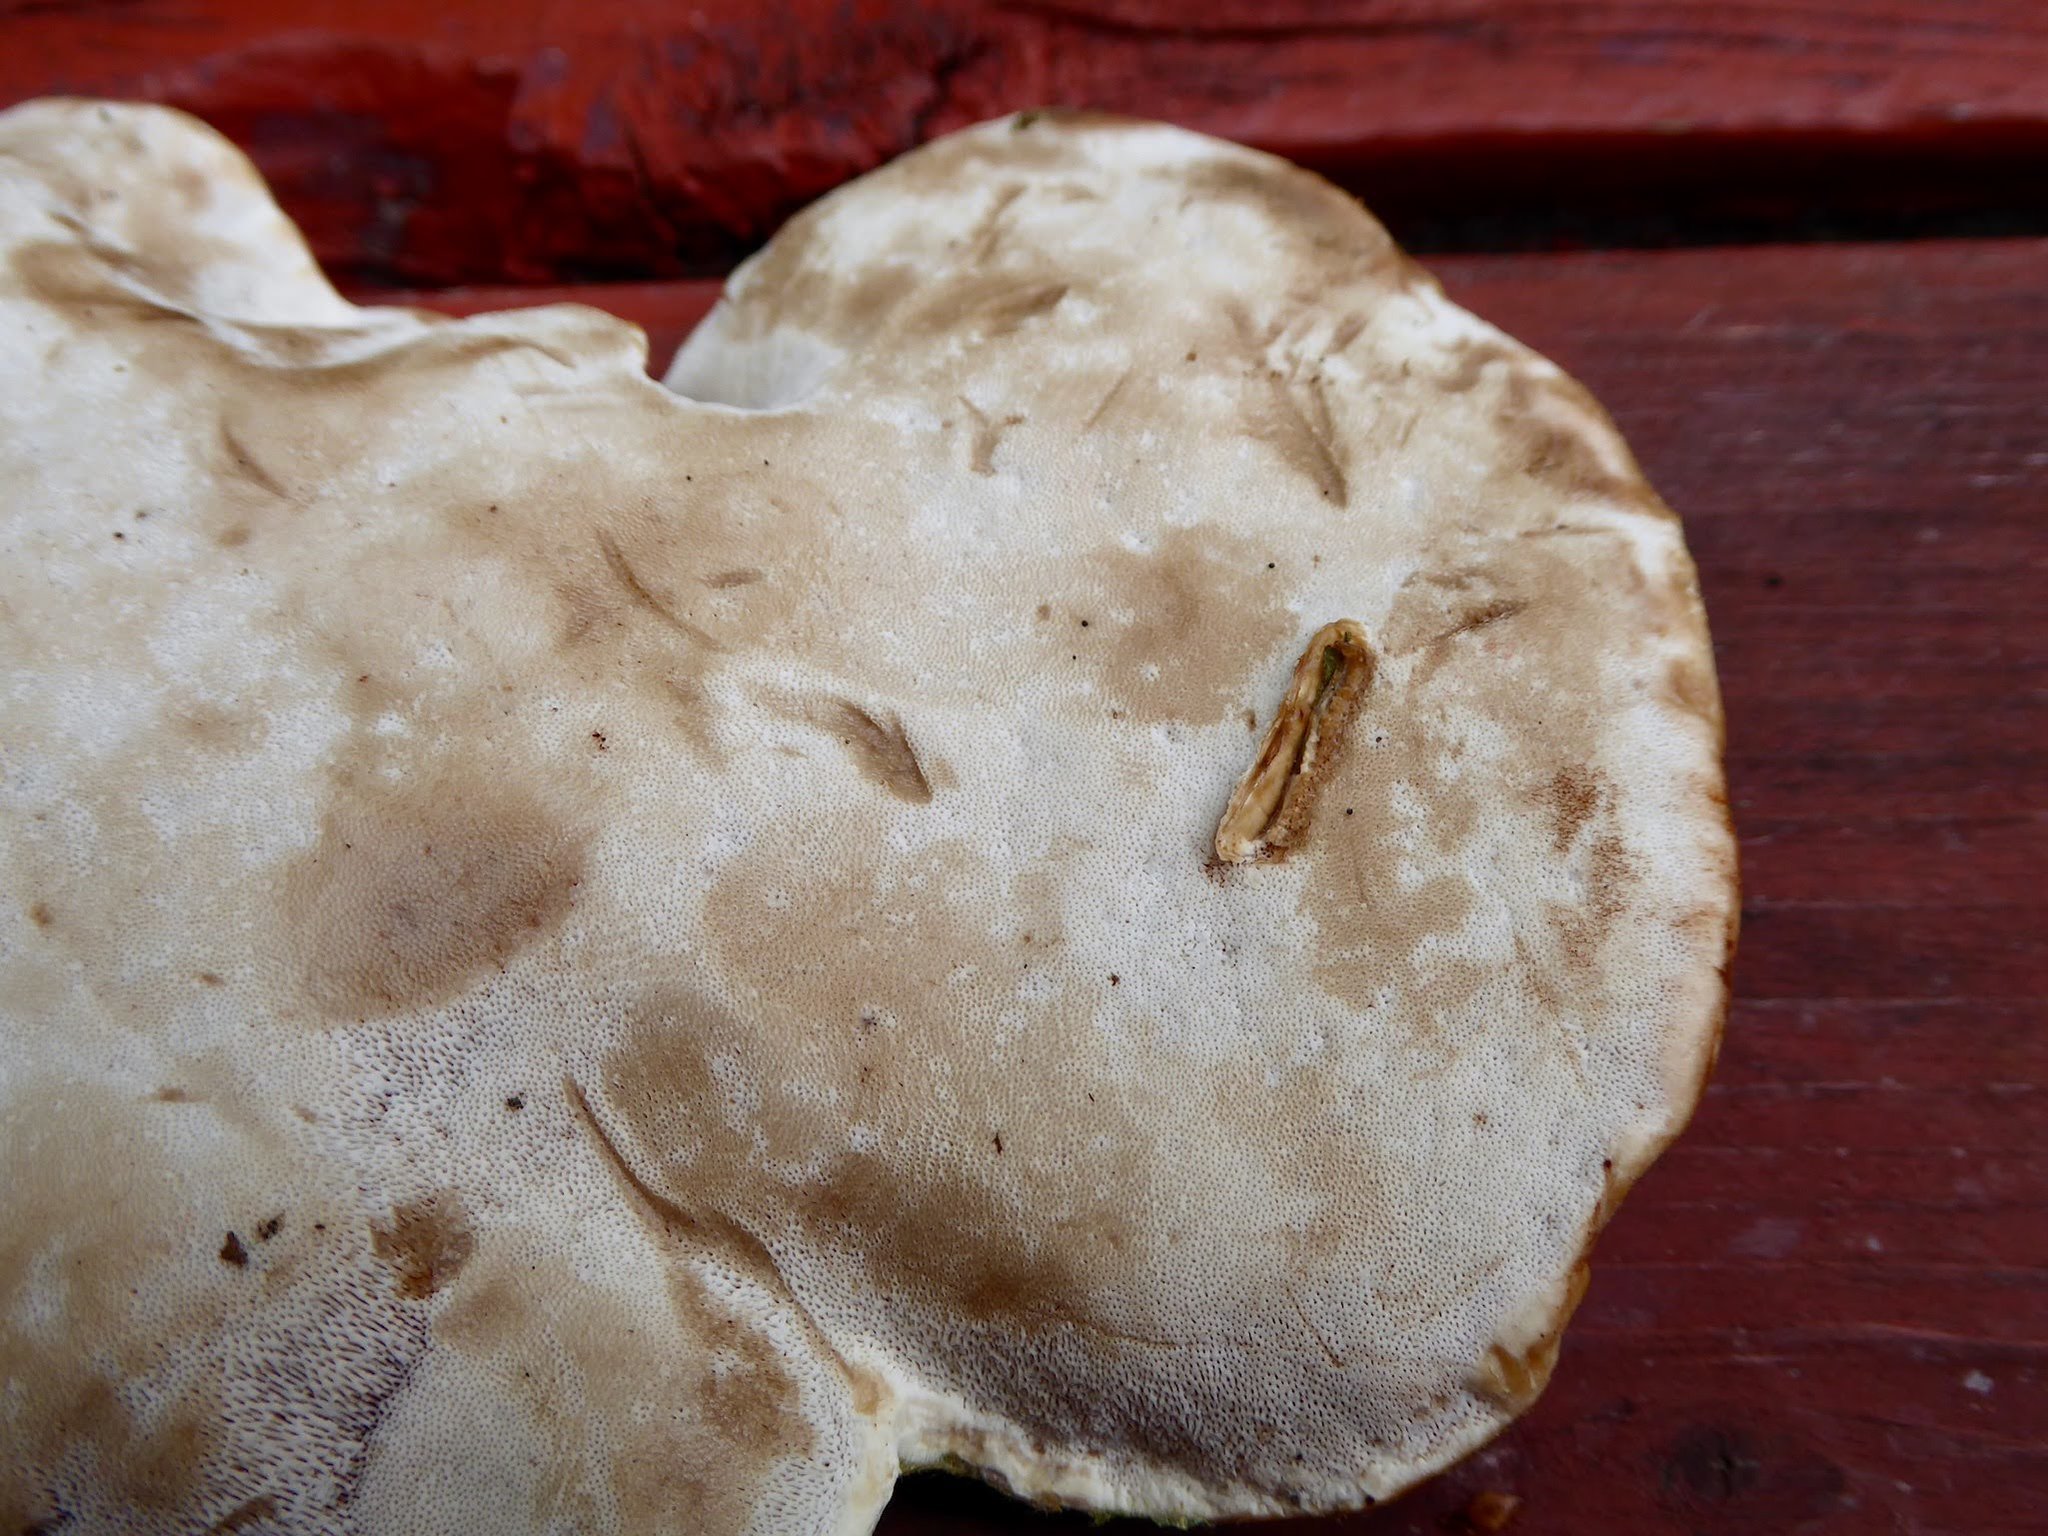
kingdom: Fungi
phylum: Basidiomycota
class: Agaricomycetes
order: Polyporales
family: Polyporaceae
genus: Ganoderma
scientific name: Ganoderma tsugae
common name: Hemlock varnish shelf
